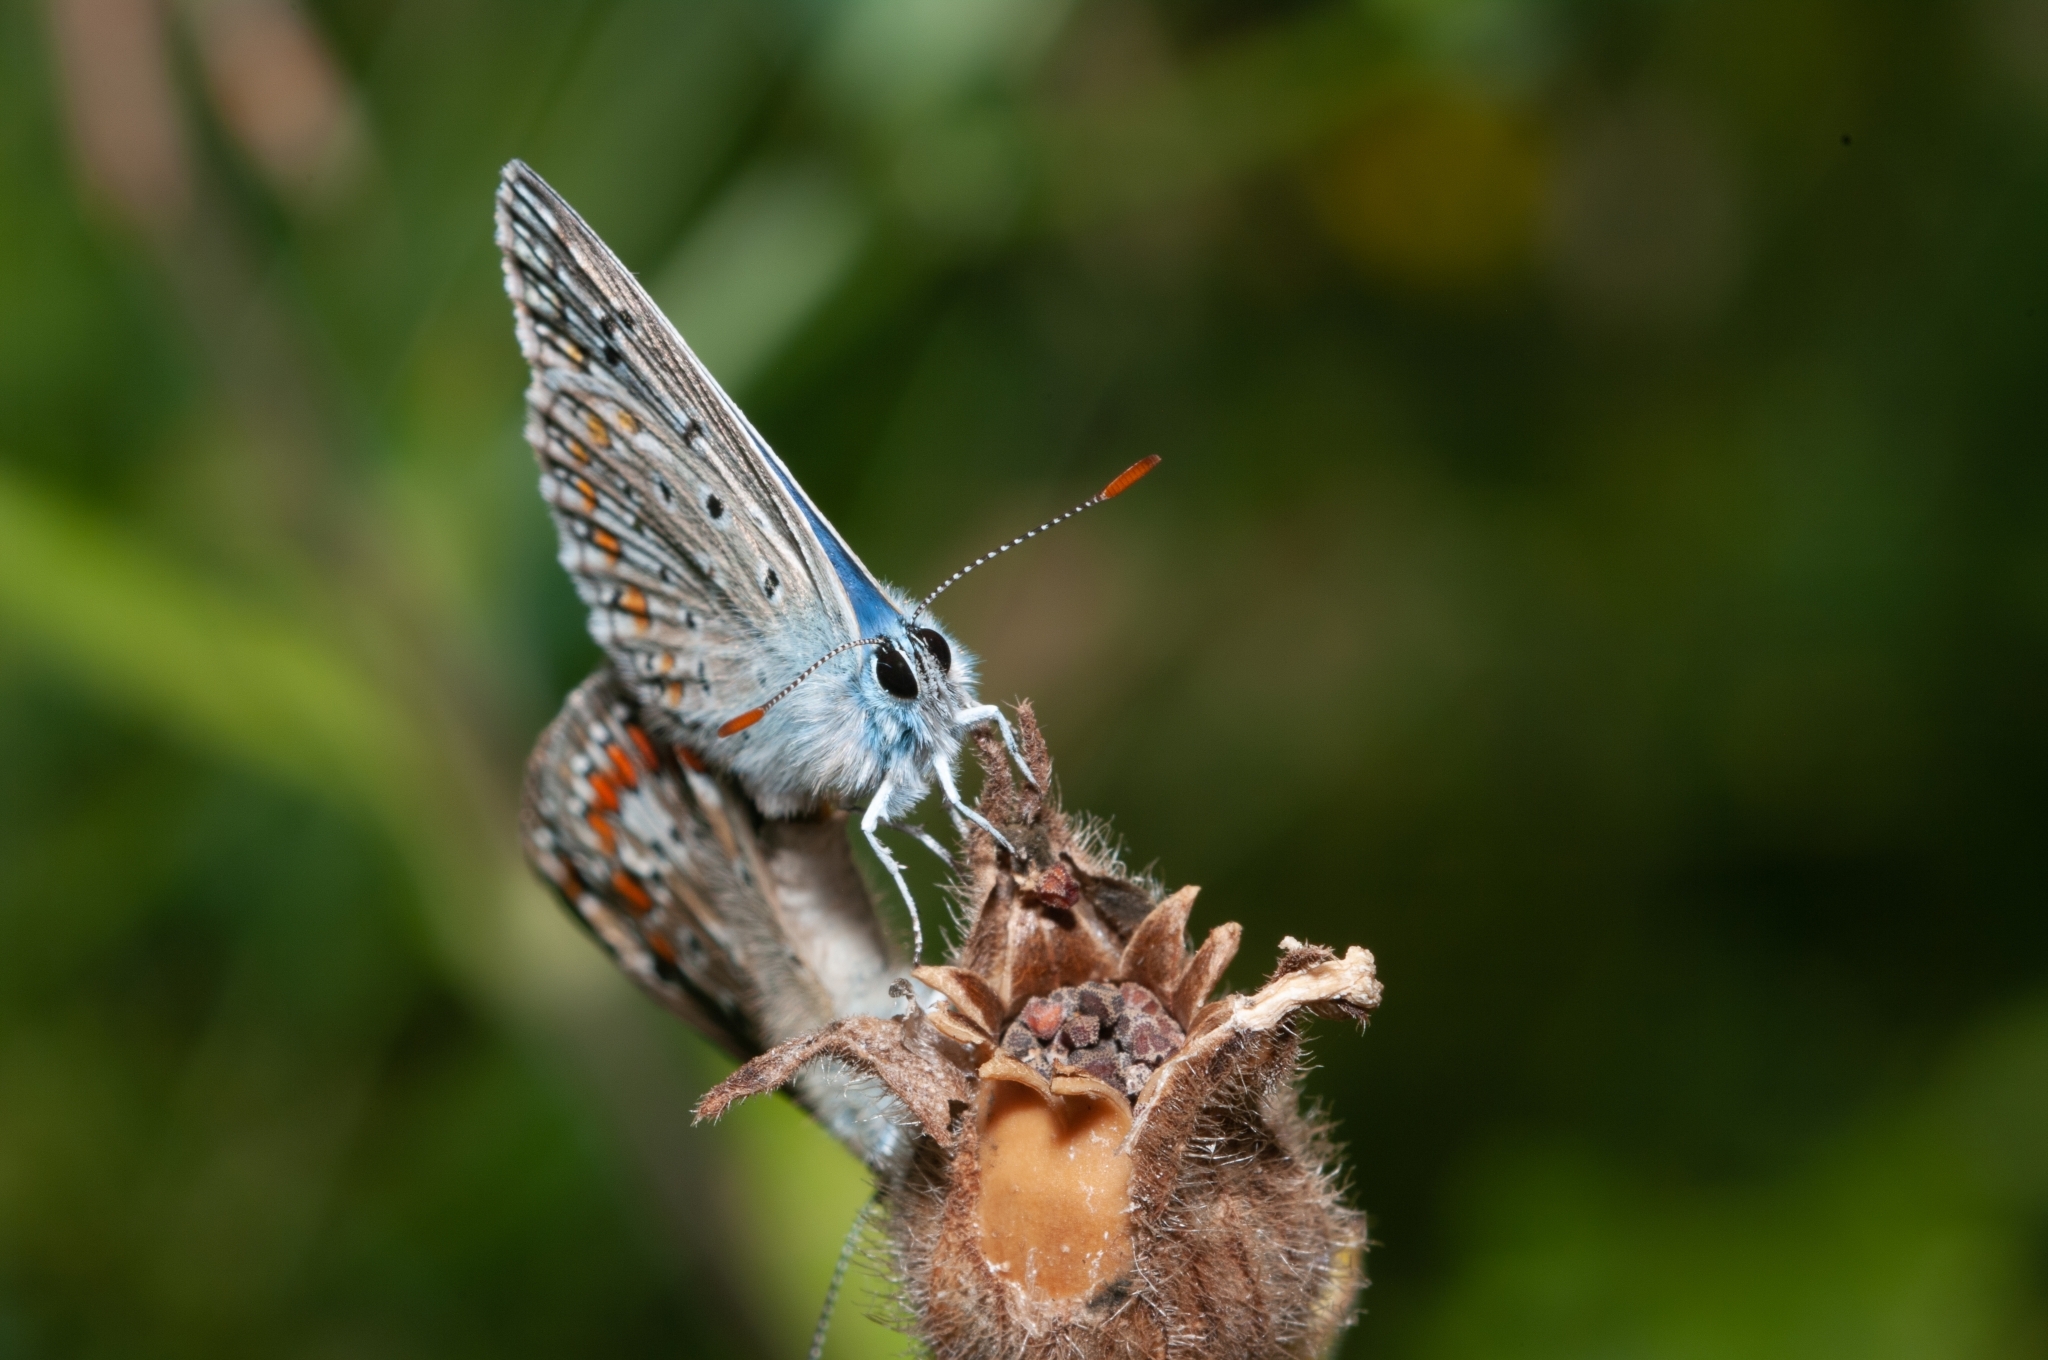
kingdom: Animalia
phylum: Arthropoda
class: Insecta
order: Lepidoptera
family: Lycaenidae
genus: Polyommatus
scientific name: Polyommatus icarus
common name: Common blue
